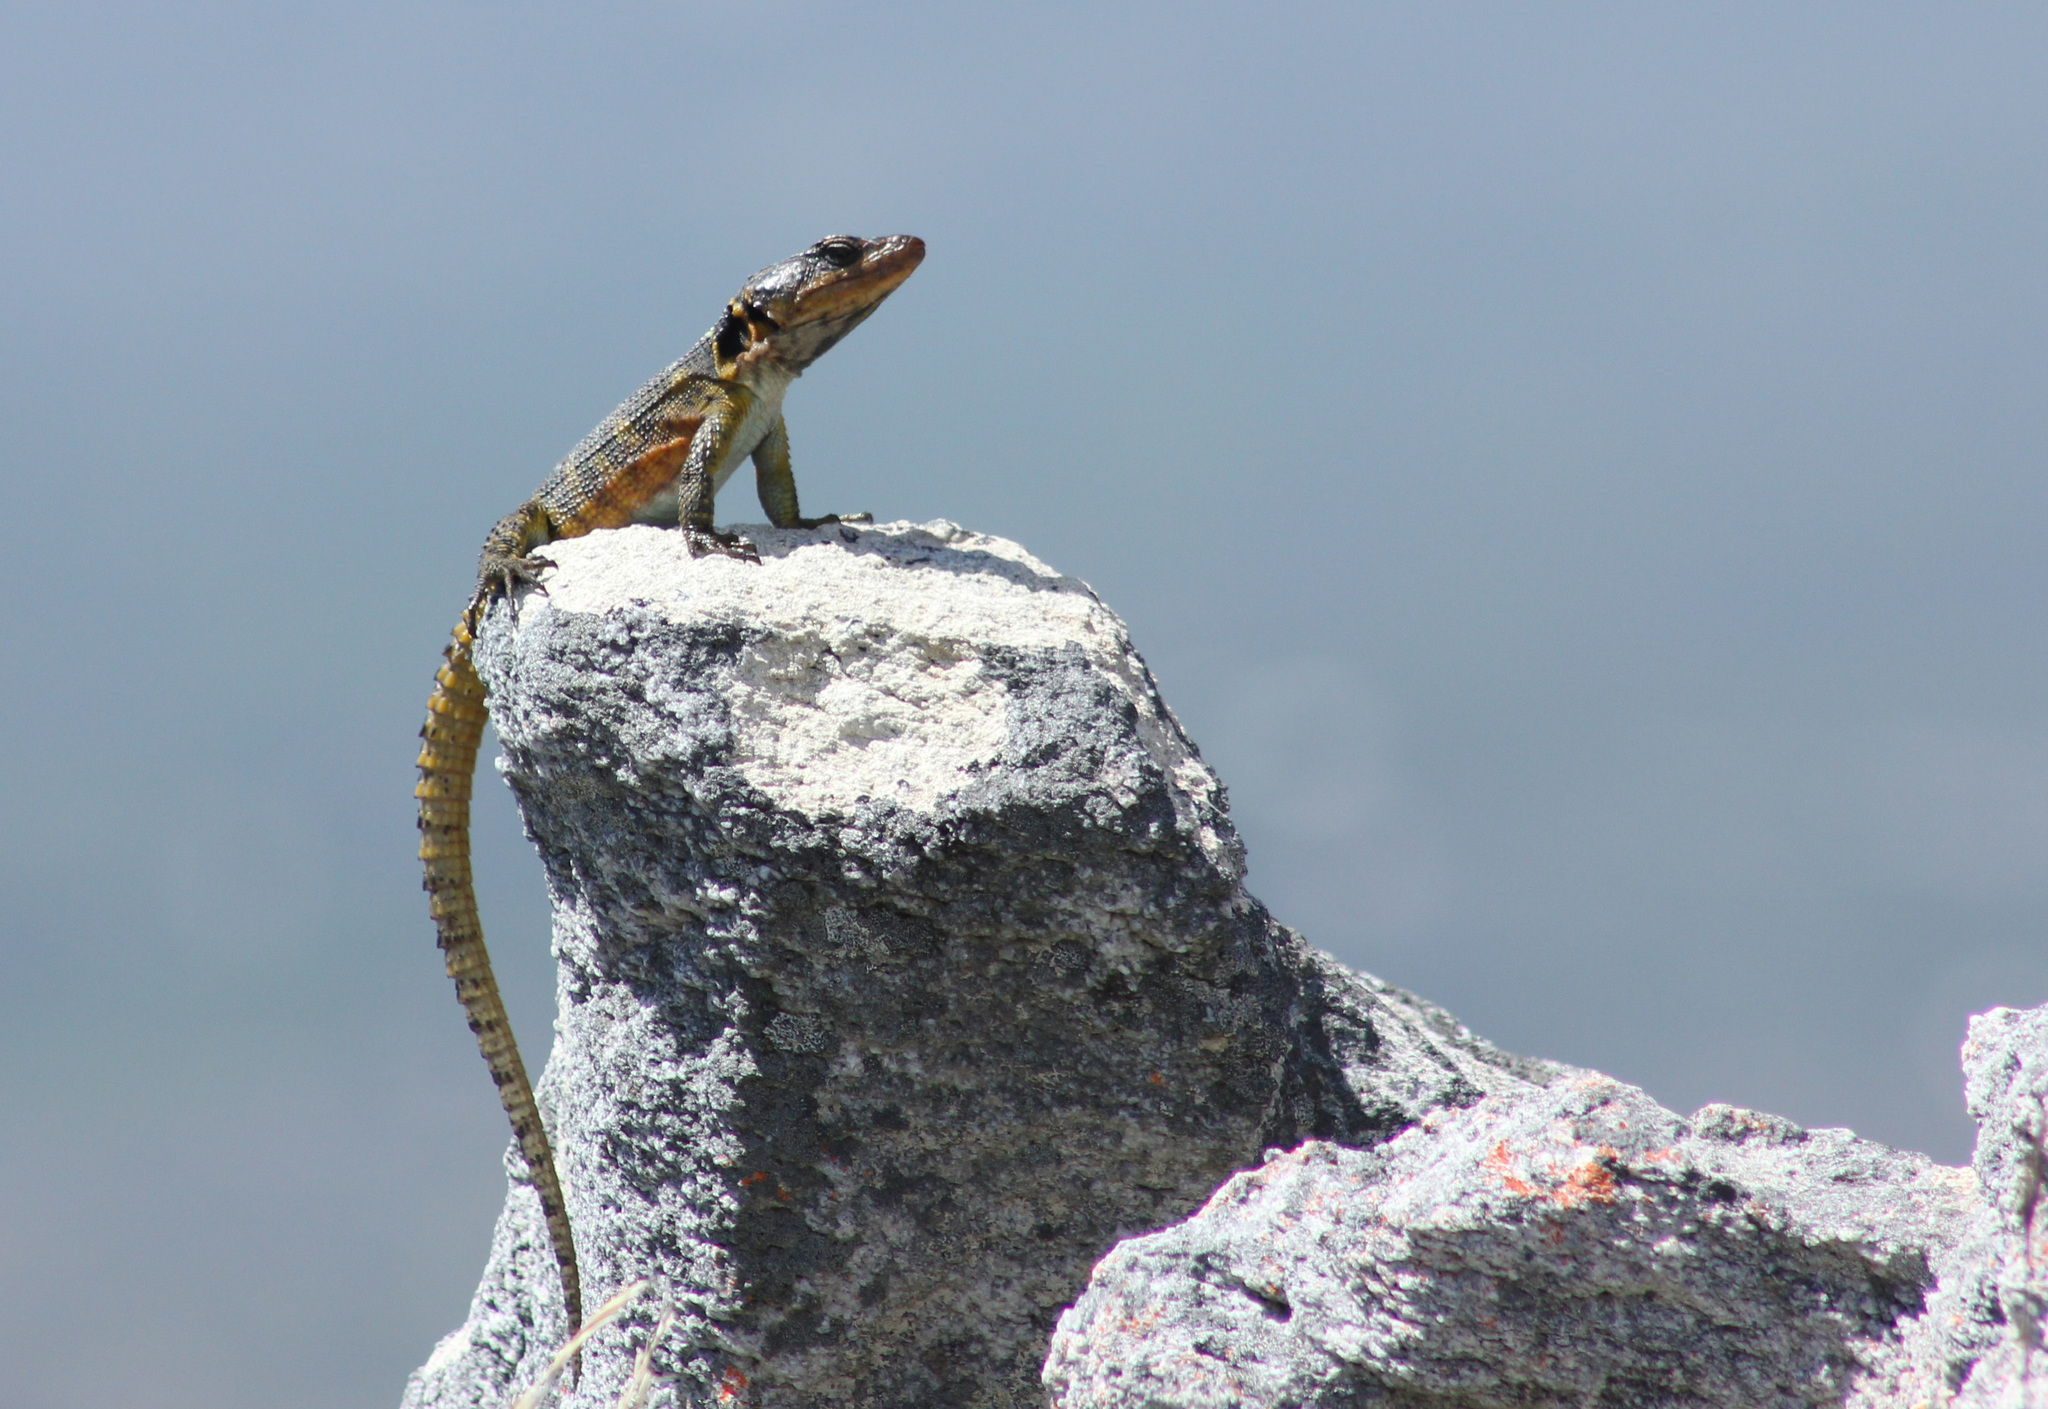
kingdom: Animalia
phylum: Chordata
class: Squamata
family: Cordylidae
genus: Pseudocordylus
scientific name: Pseudocordylus microlepidotus
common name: Cape crag lizard
